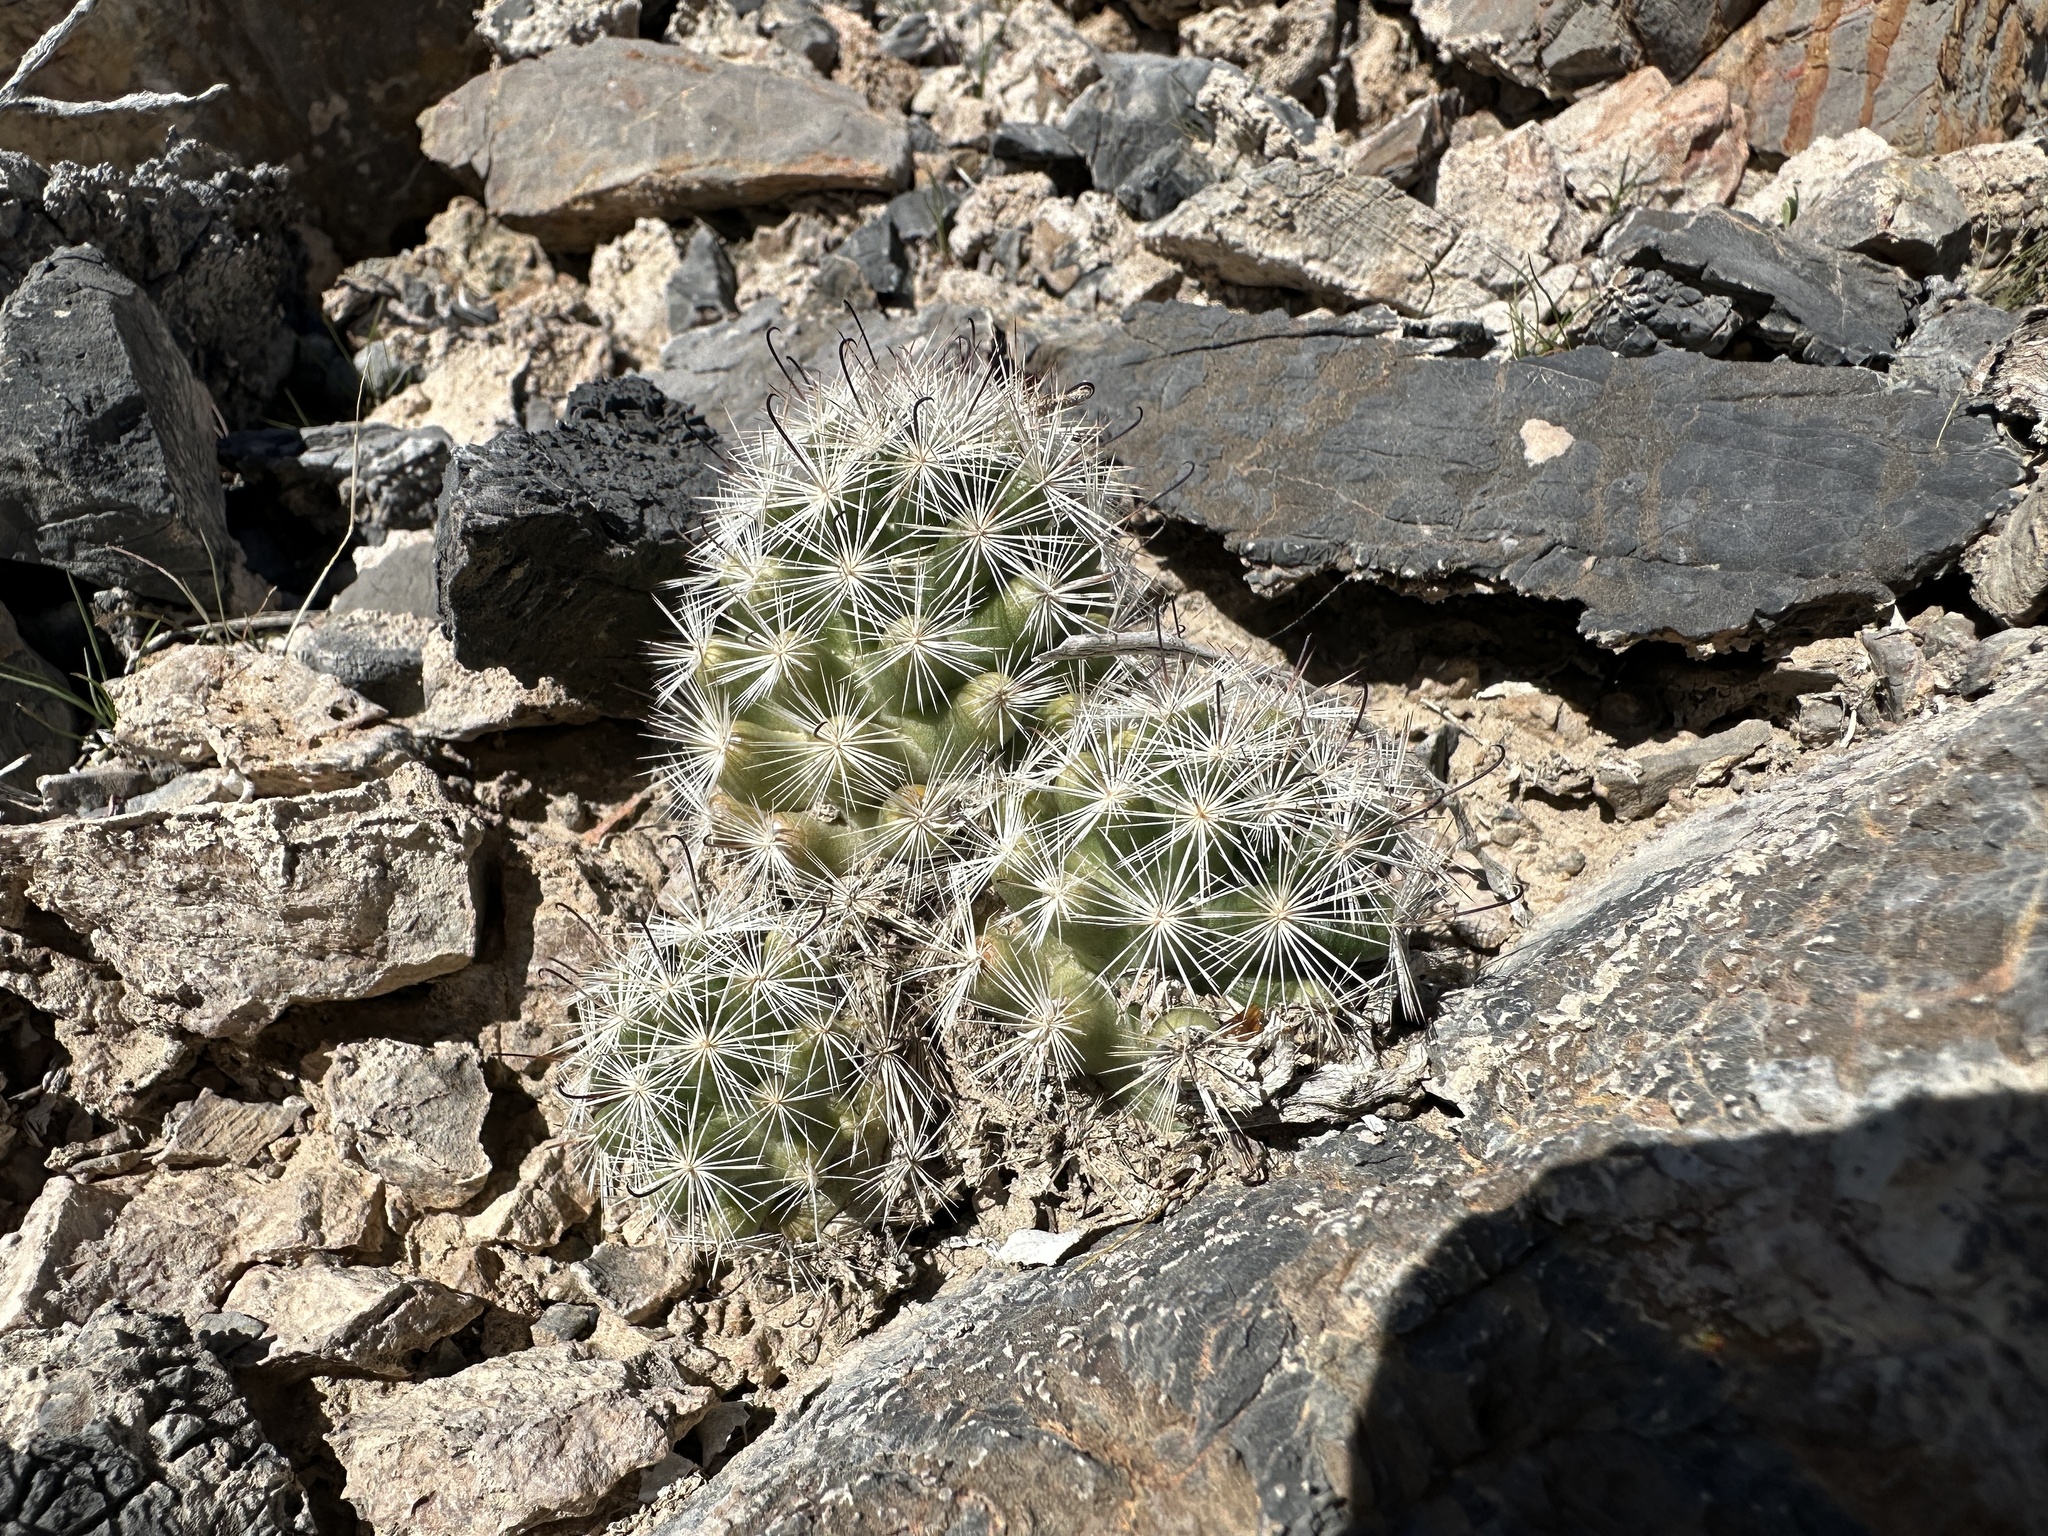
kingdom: Plantae
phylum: Tracheophyta
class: Magnoliopsida
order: Caryophyllales
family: Cactaceae
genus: Cochemiea
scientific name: Cochemiea tetrancistra
